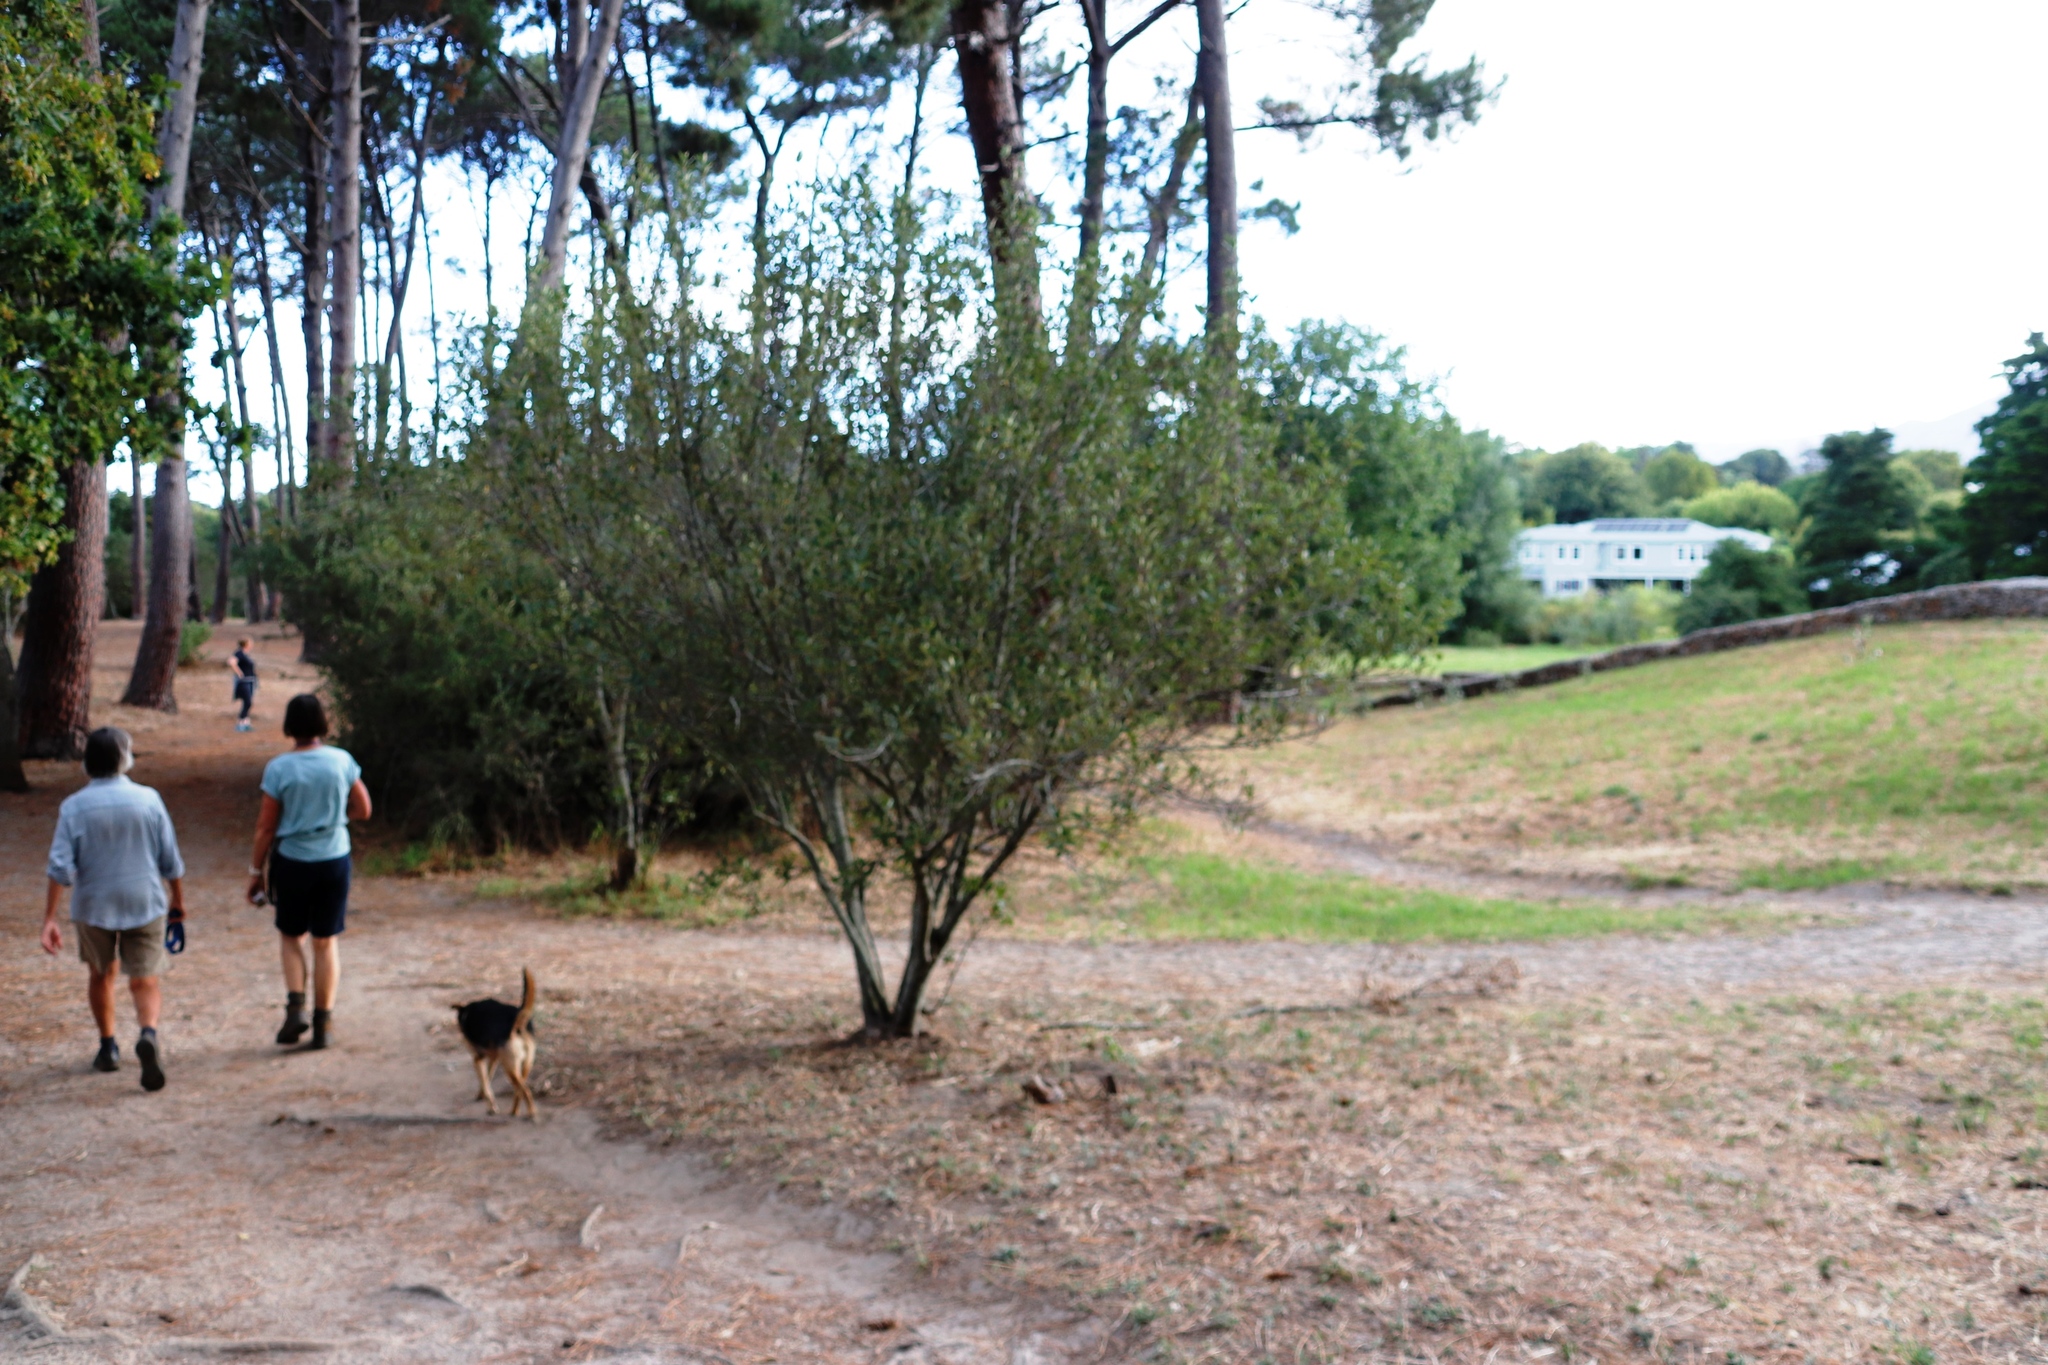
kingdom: Plantae
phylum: Tracheophyta
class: Magnoliopsida
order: Malpighiales
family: Achariaceae
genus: Kiggelaria
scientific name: Kiggelaria africana
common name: Wild peach
